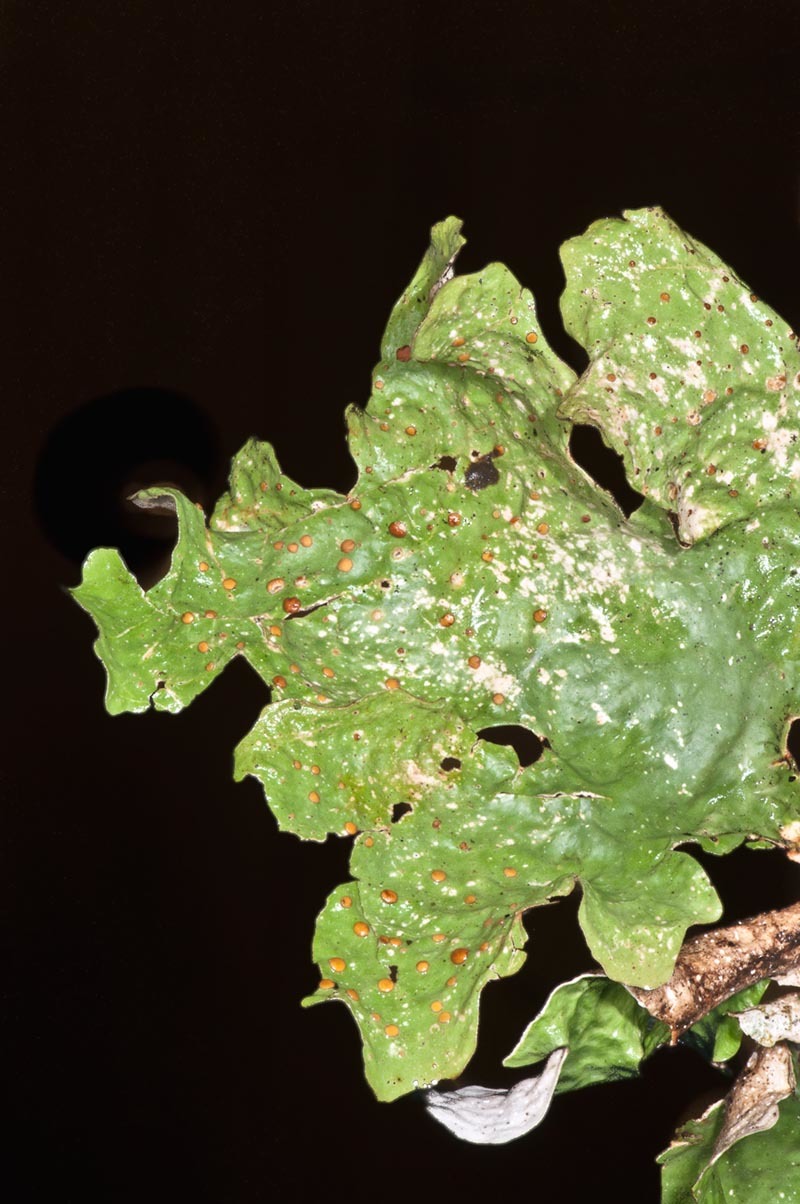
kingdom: Fungi
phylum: Ascomycota
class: Lecanoromycetes
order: Peltigerales
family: Lobariaceae
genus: Sticta
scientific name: Sticta latifrons
